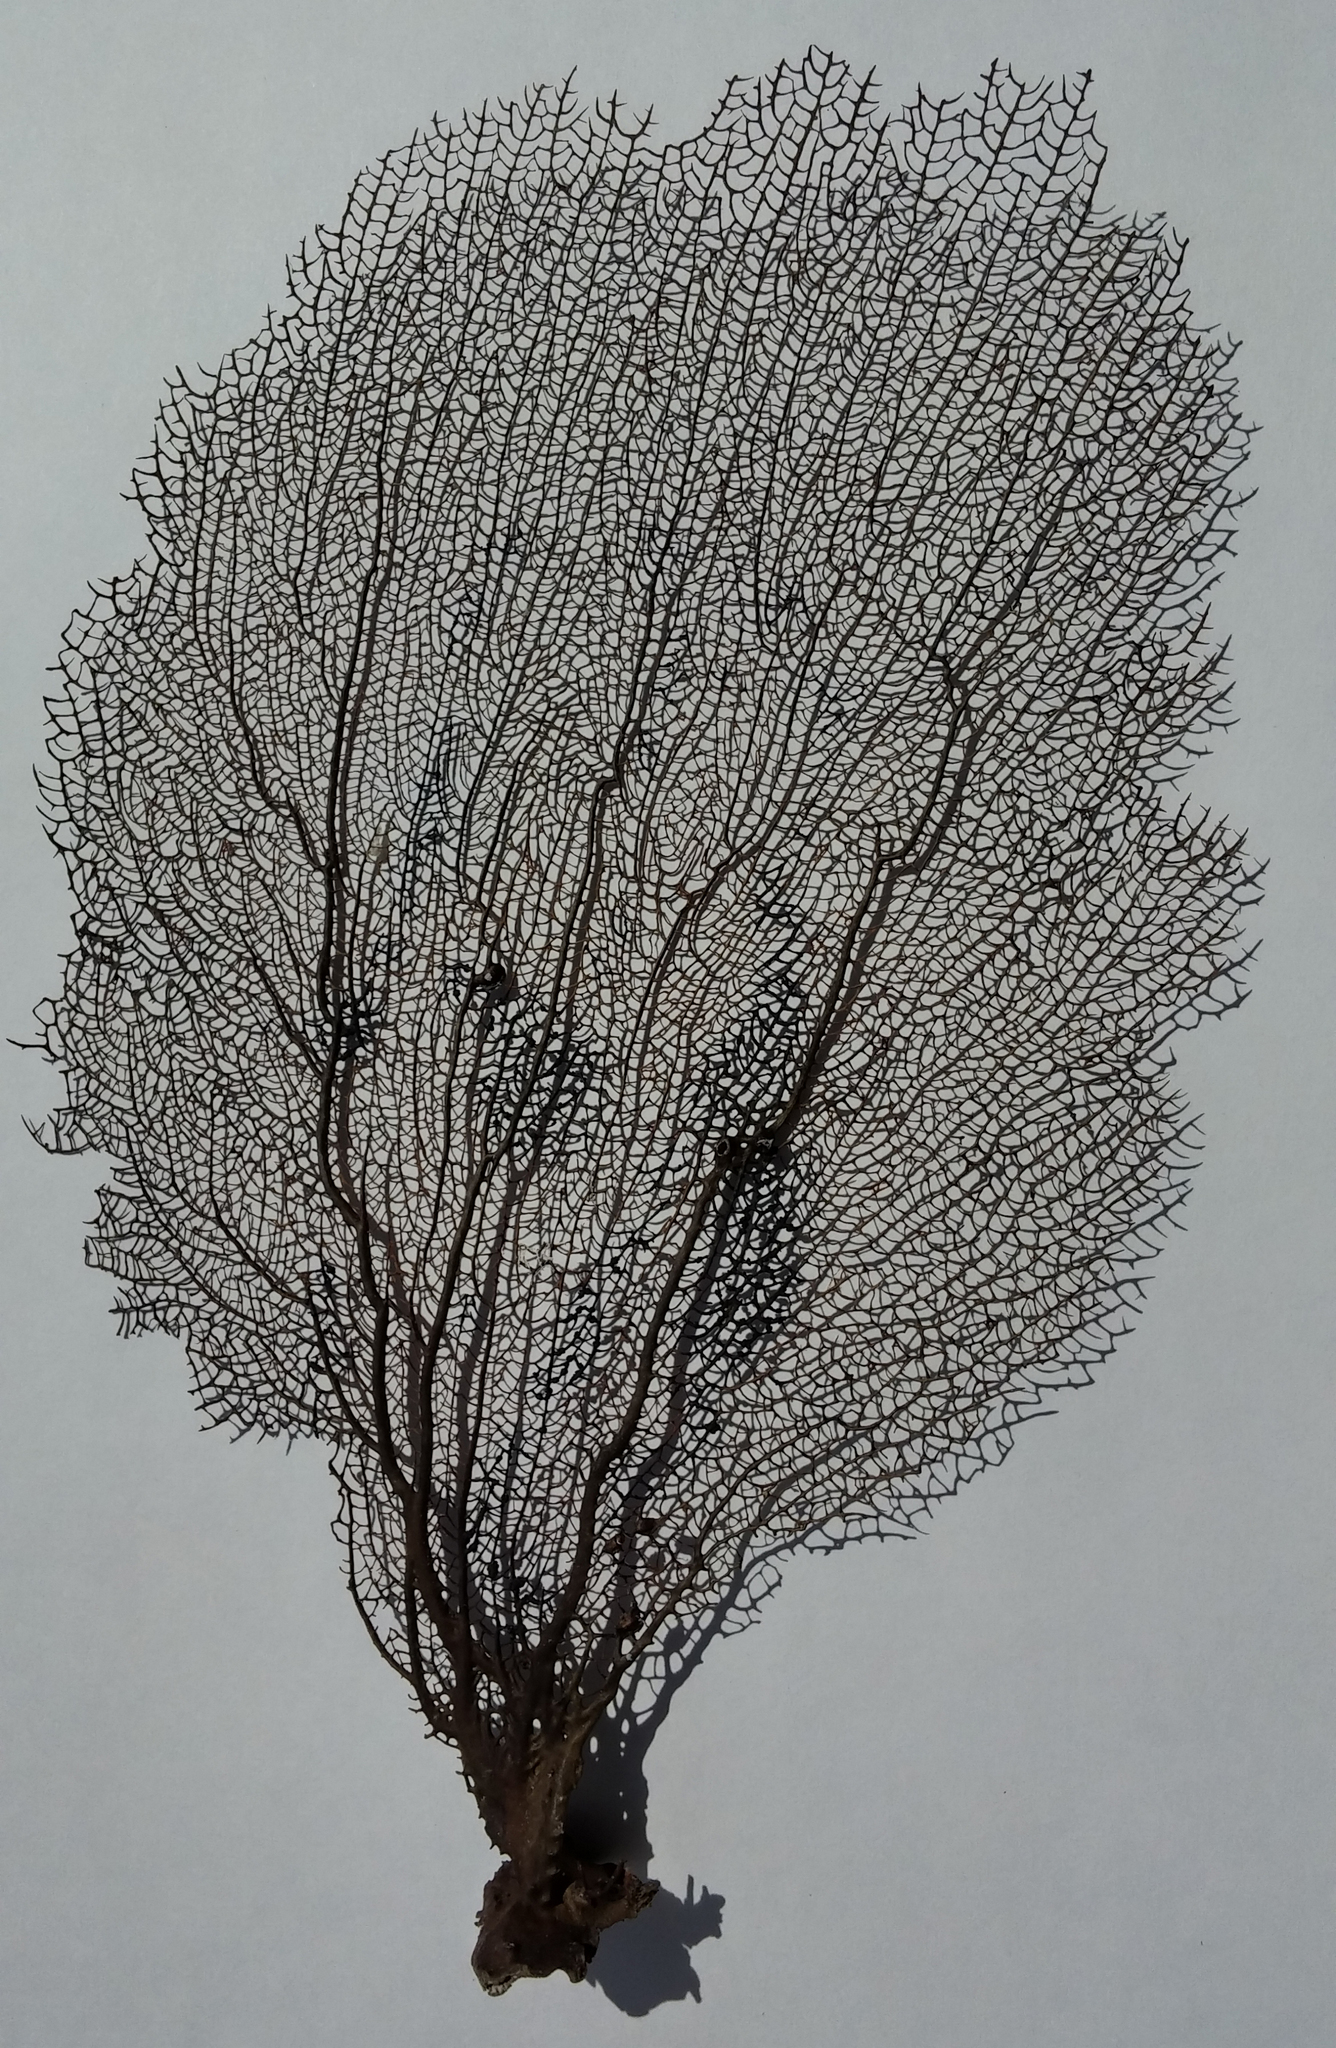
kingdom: Animalia
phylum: Cnidaria
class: Anthozoa
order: Malacalcyonacea
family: Gorgoniidae
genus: Gorgonia
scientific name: Gorgonia ventalina
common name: Common sea fan
